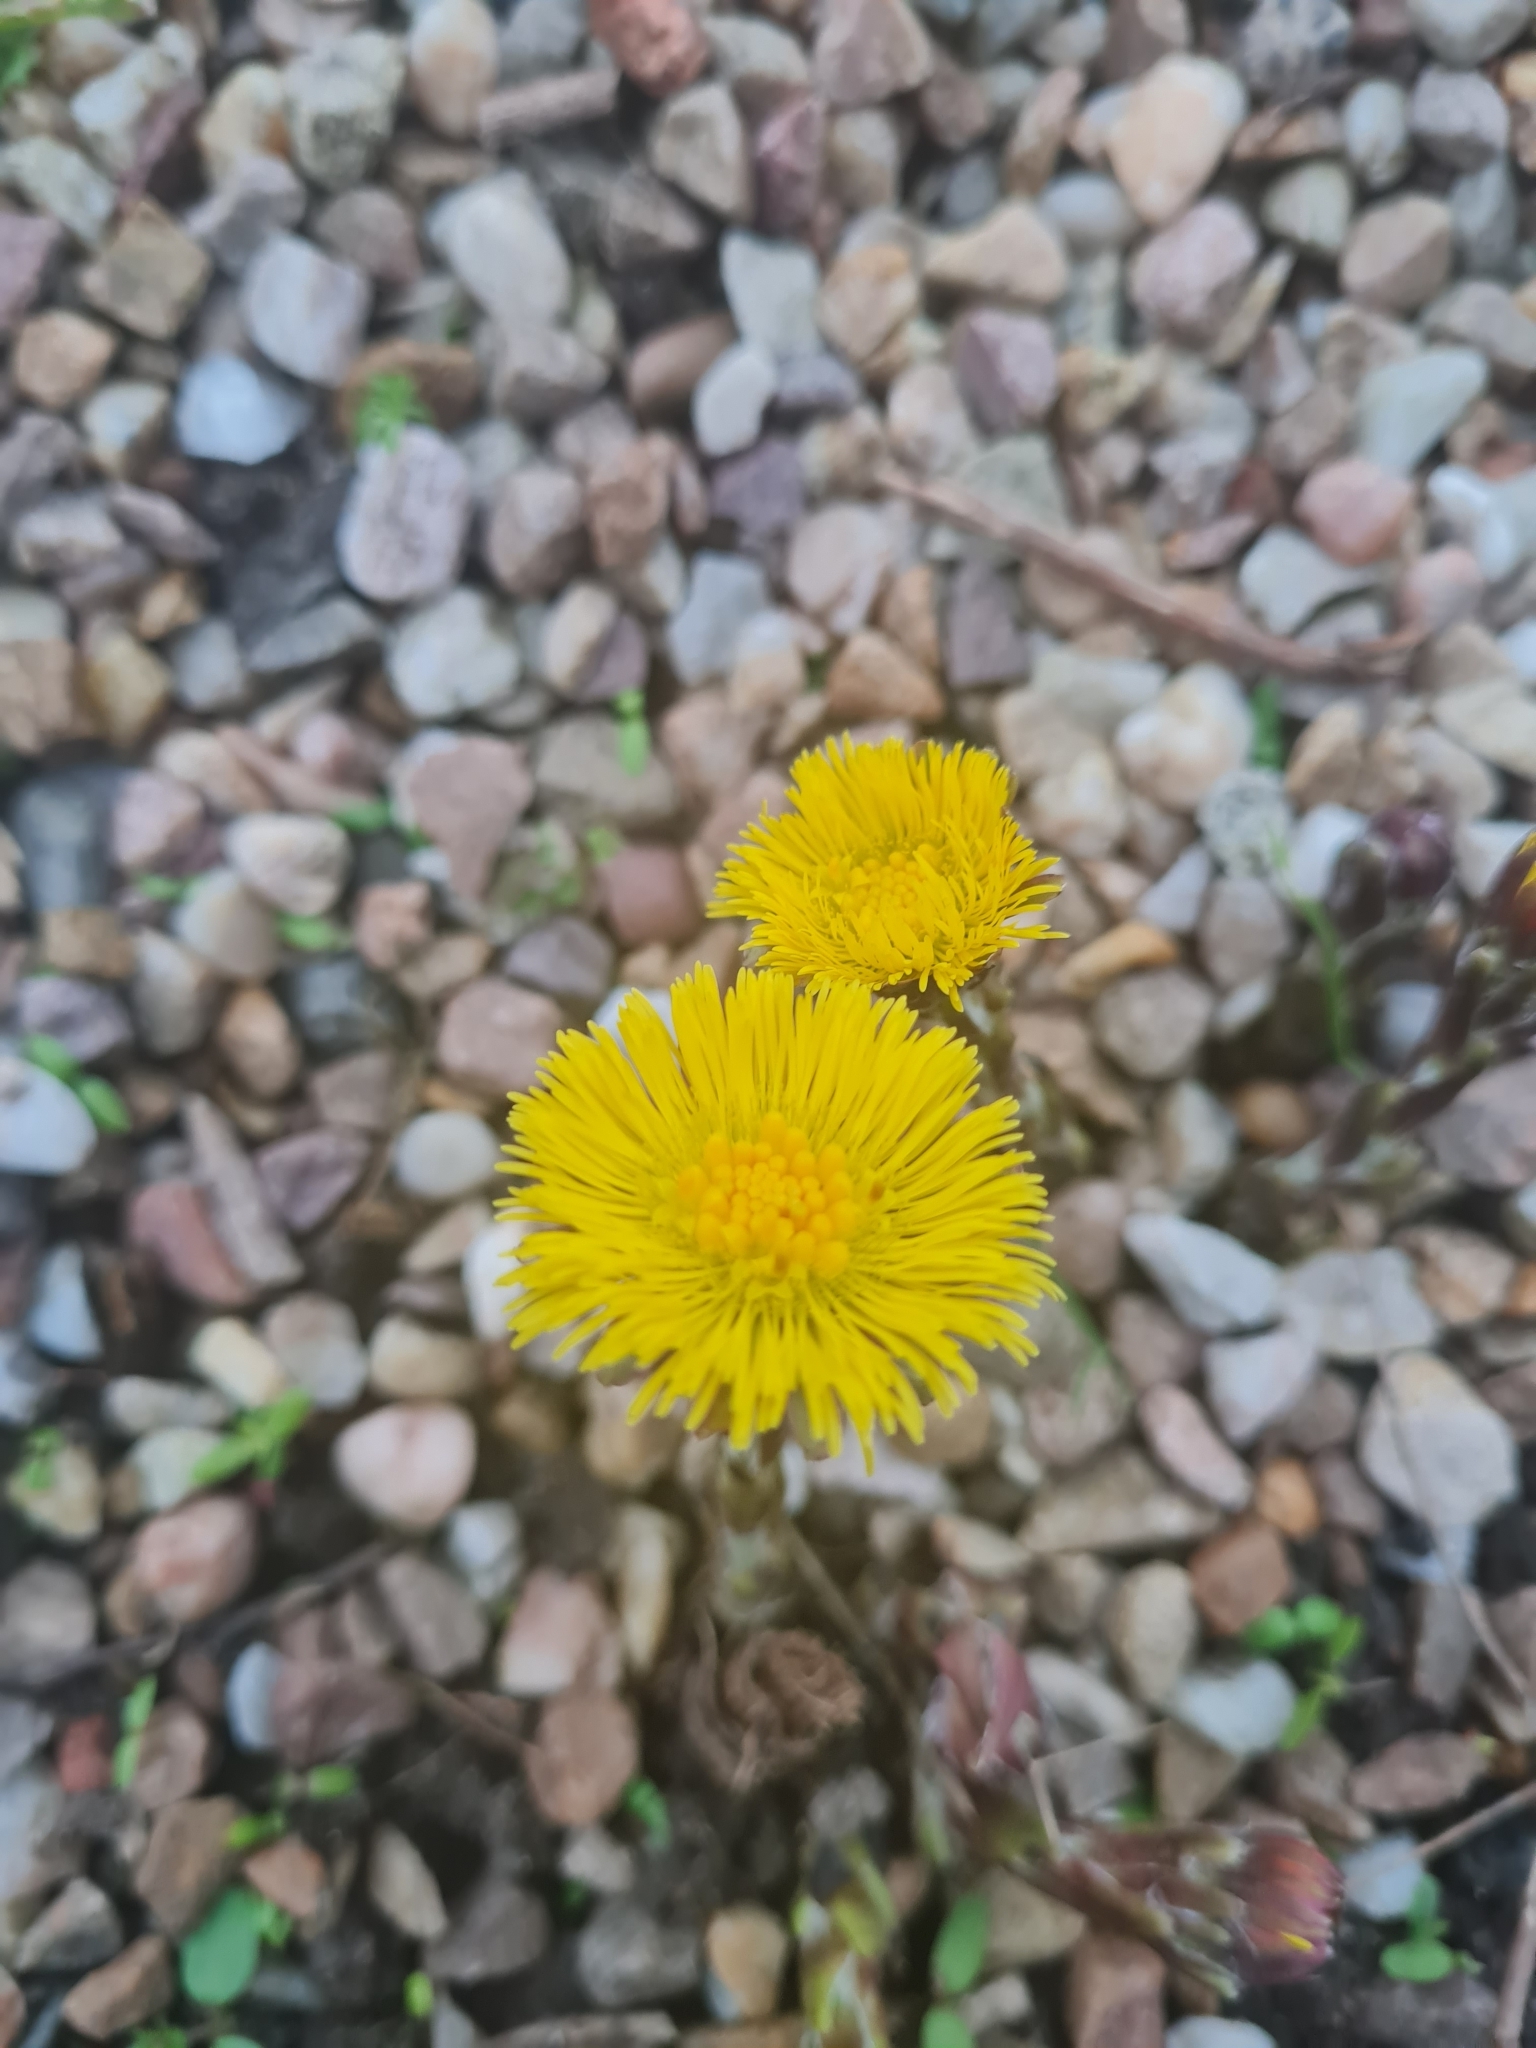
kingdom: Plantae
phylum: Tracheophyta
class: Magnoliopsida
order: Asterales
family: Asteraceae
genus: Tussilago
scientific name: Tussilago farfara
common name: Coltsfoot
